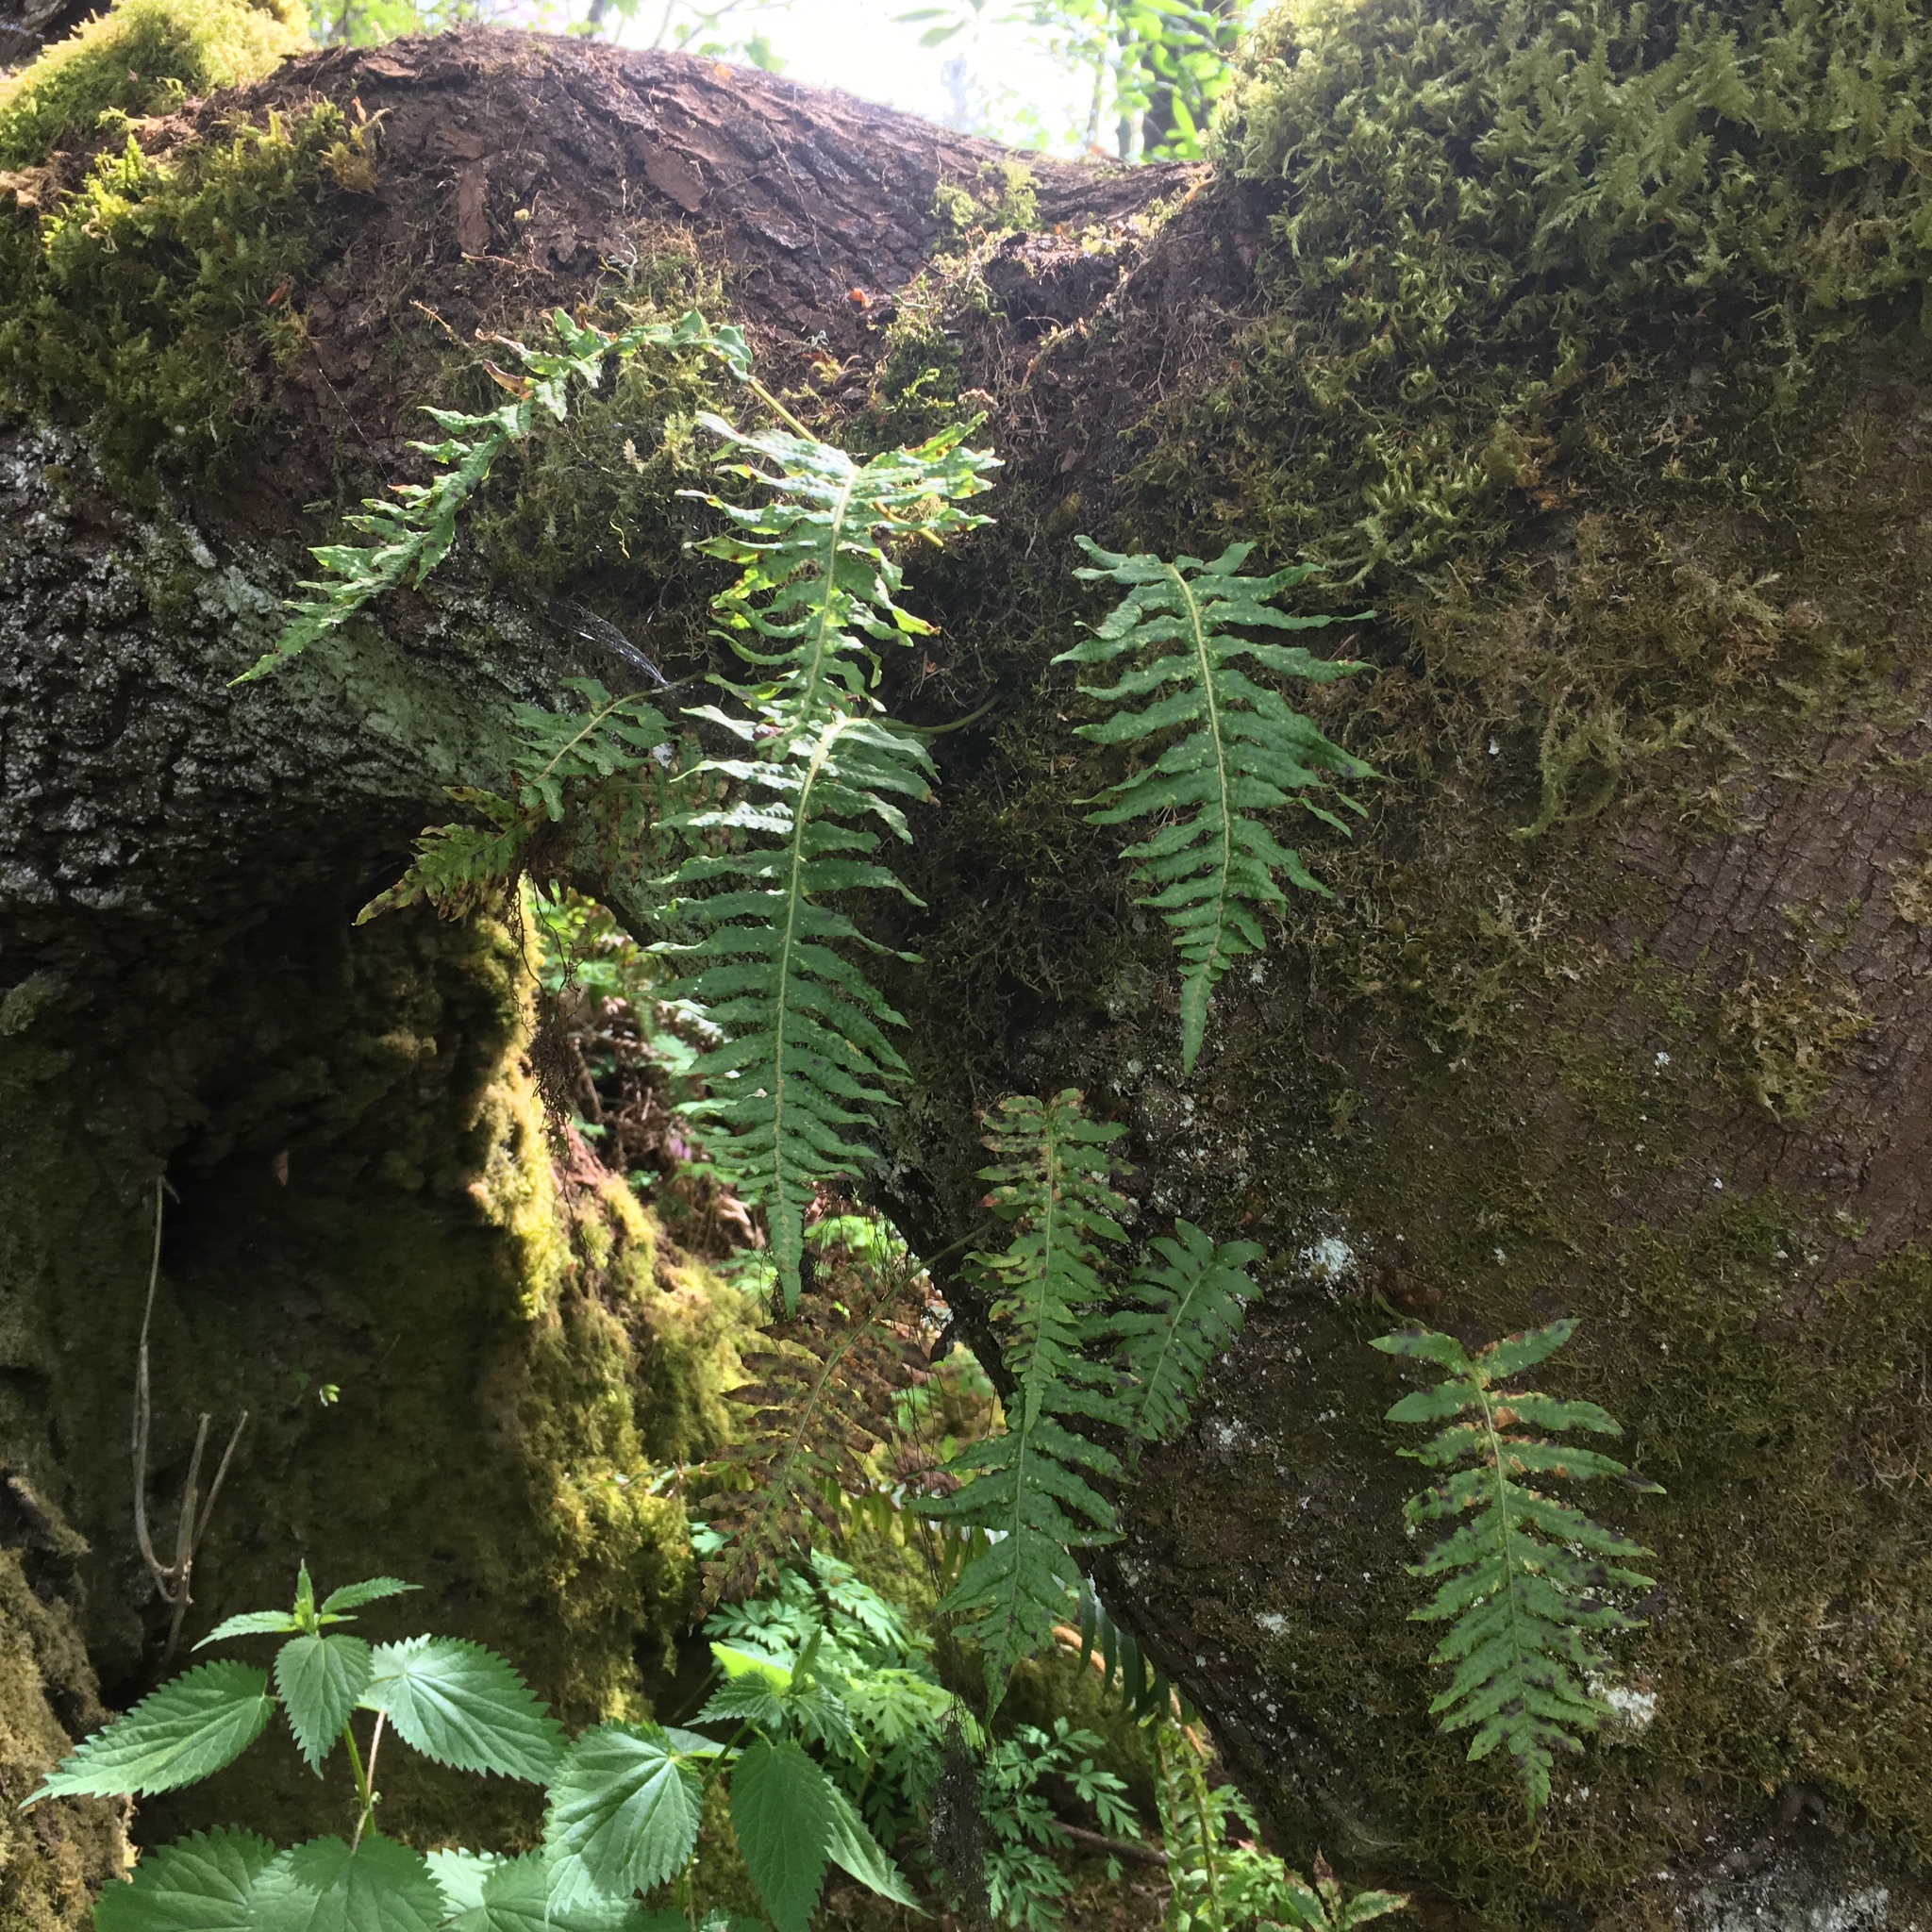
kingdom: Plantae
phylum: Tracheophyta
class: Polypodiopsida
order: Polypodiales
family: Polypodiaceae
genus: Polypodium
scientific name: Polypodium glycyrrhiza
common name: Licorice fern
